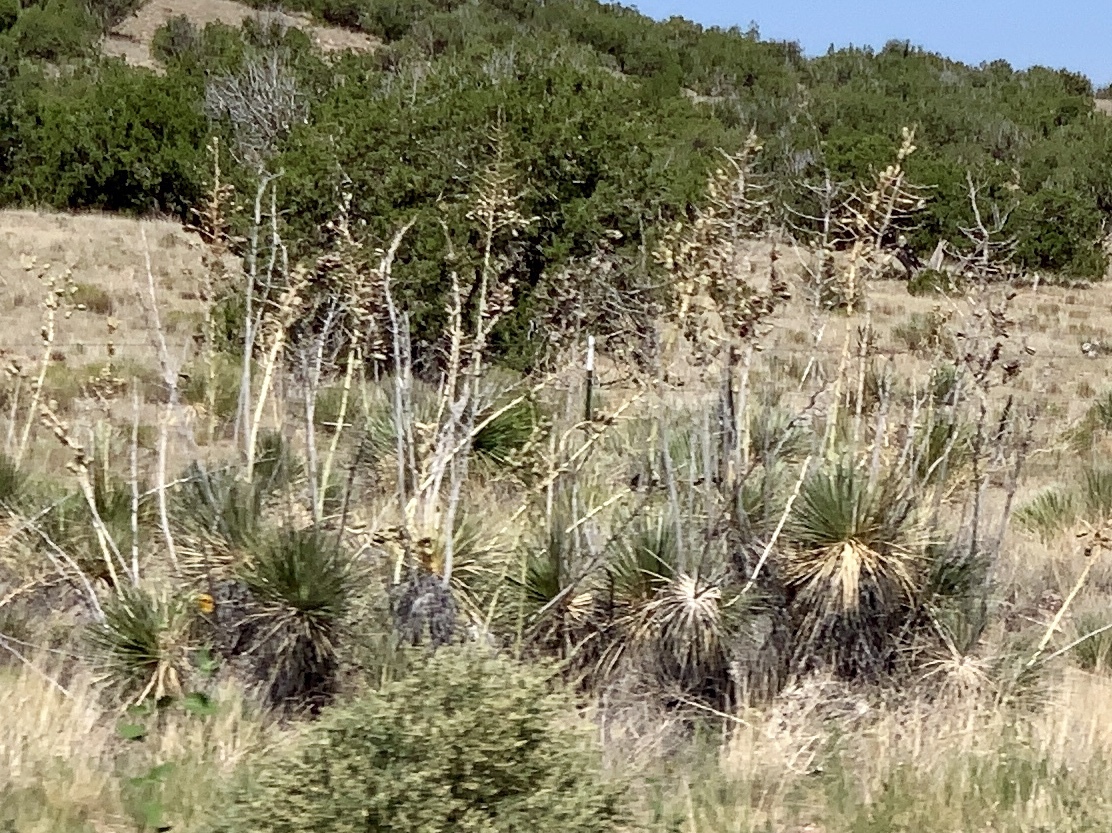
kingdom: Plantae
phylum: Tracheophyta
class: Liliopsida
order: Asparagales
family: Asparagaceae
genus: Yucca
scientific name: Yucca elata
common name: Palmella
